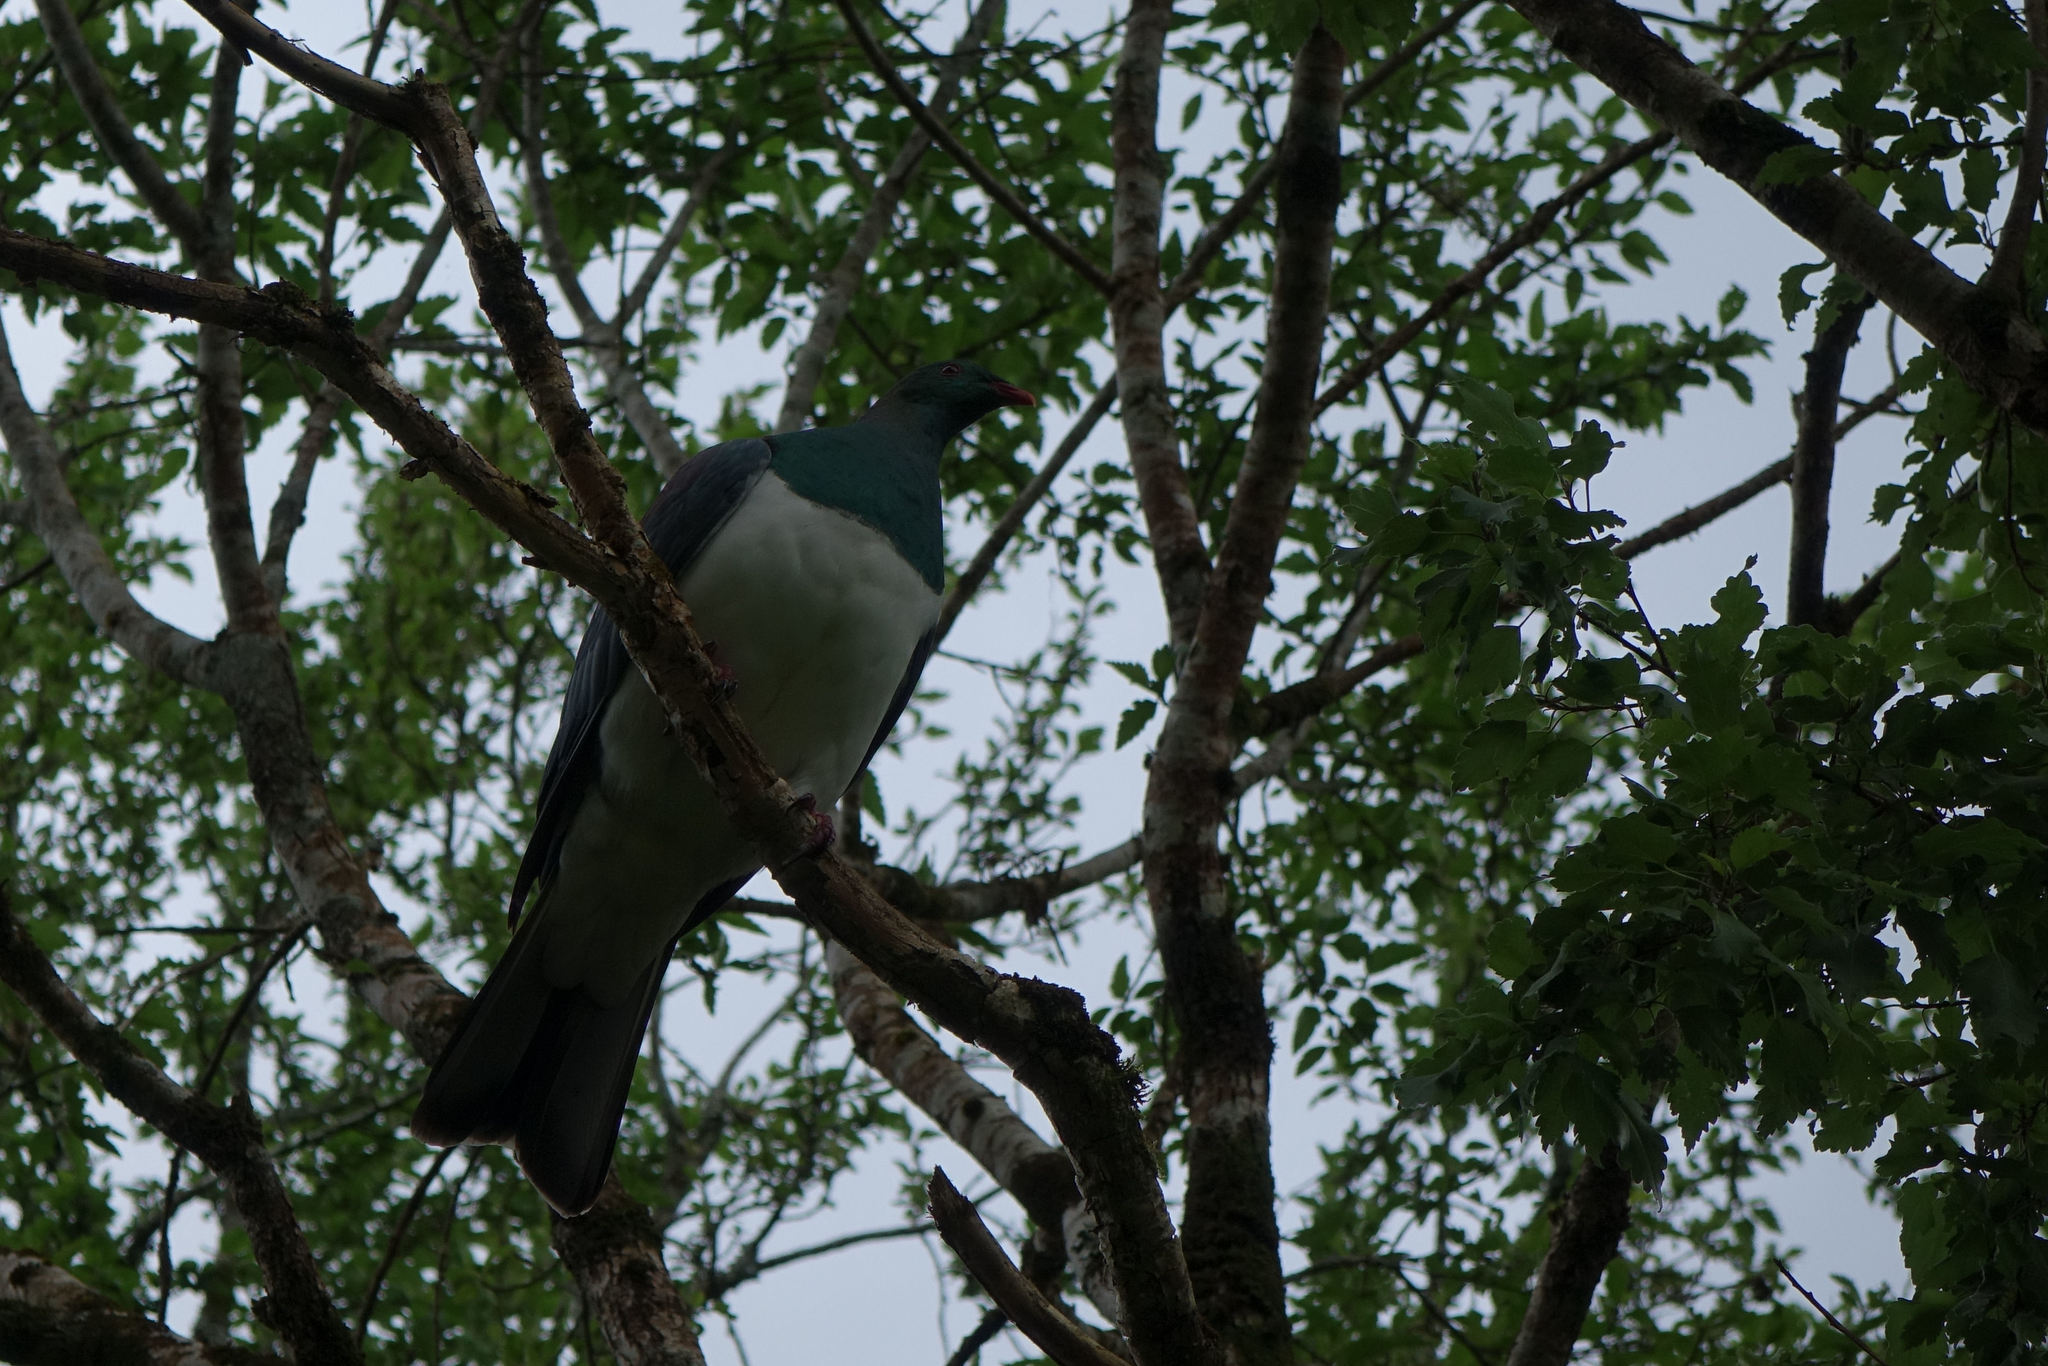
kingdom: Animalia
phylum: Chordata
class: Aves
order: Columbiformes
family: Columbidae
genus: Hemiphaga
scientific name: Hemiphaga novaeseelandiae
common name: New zealand pigeon
